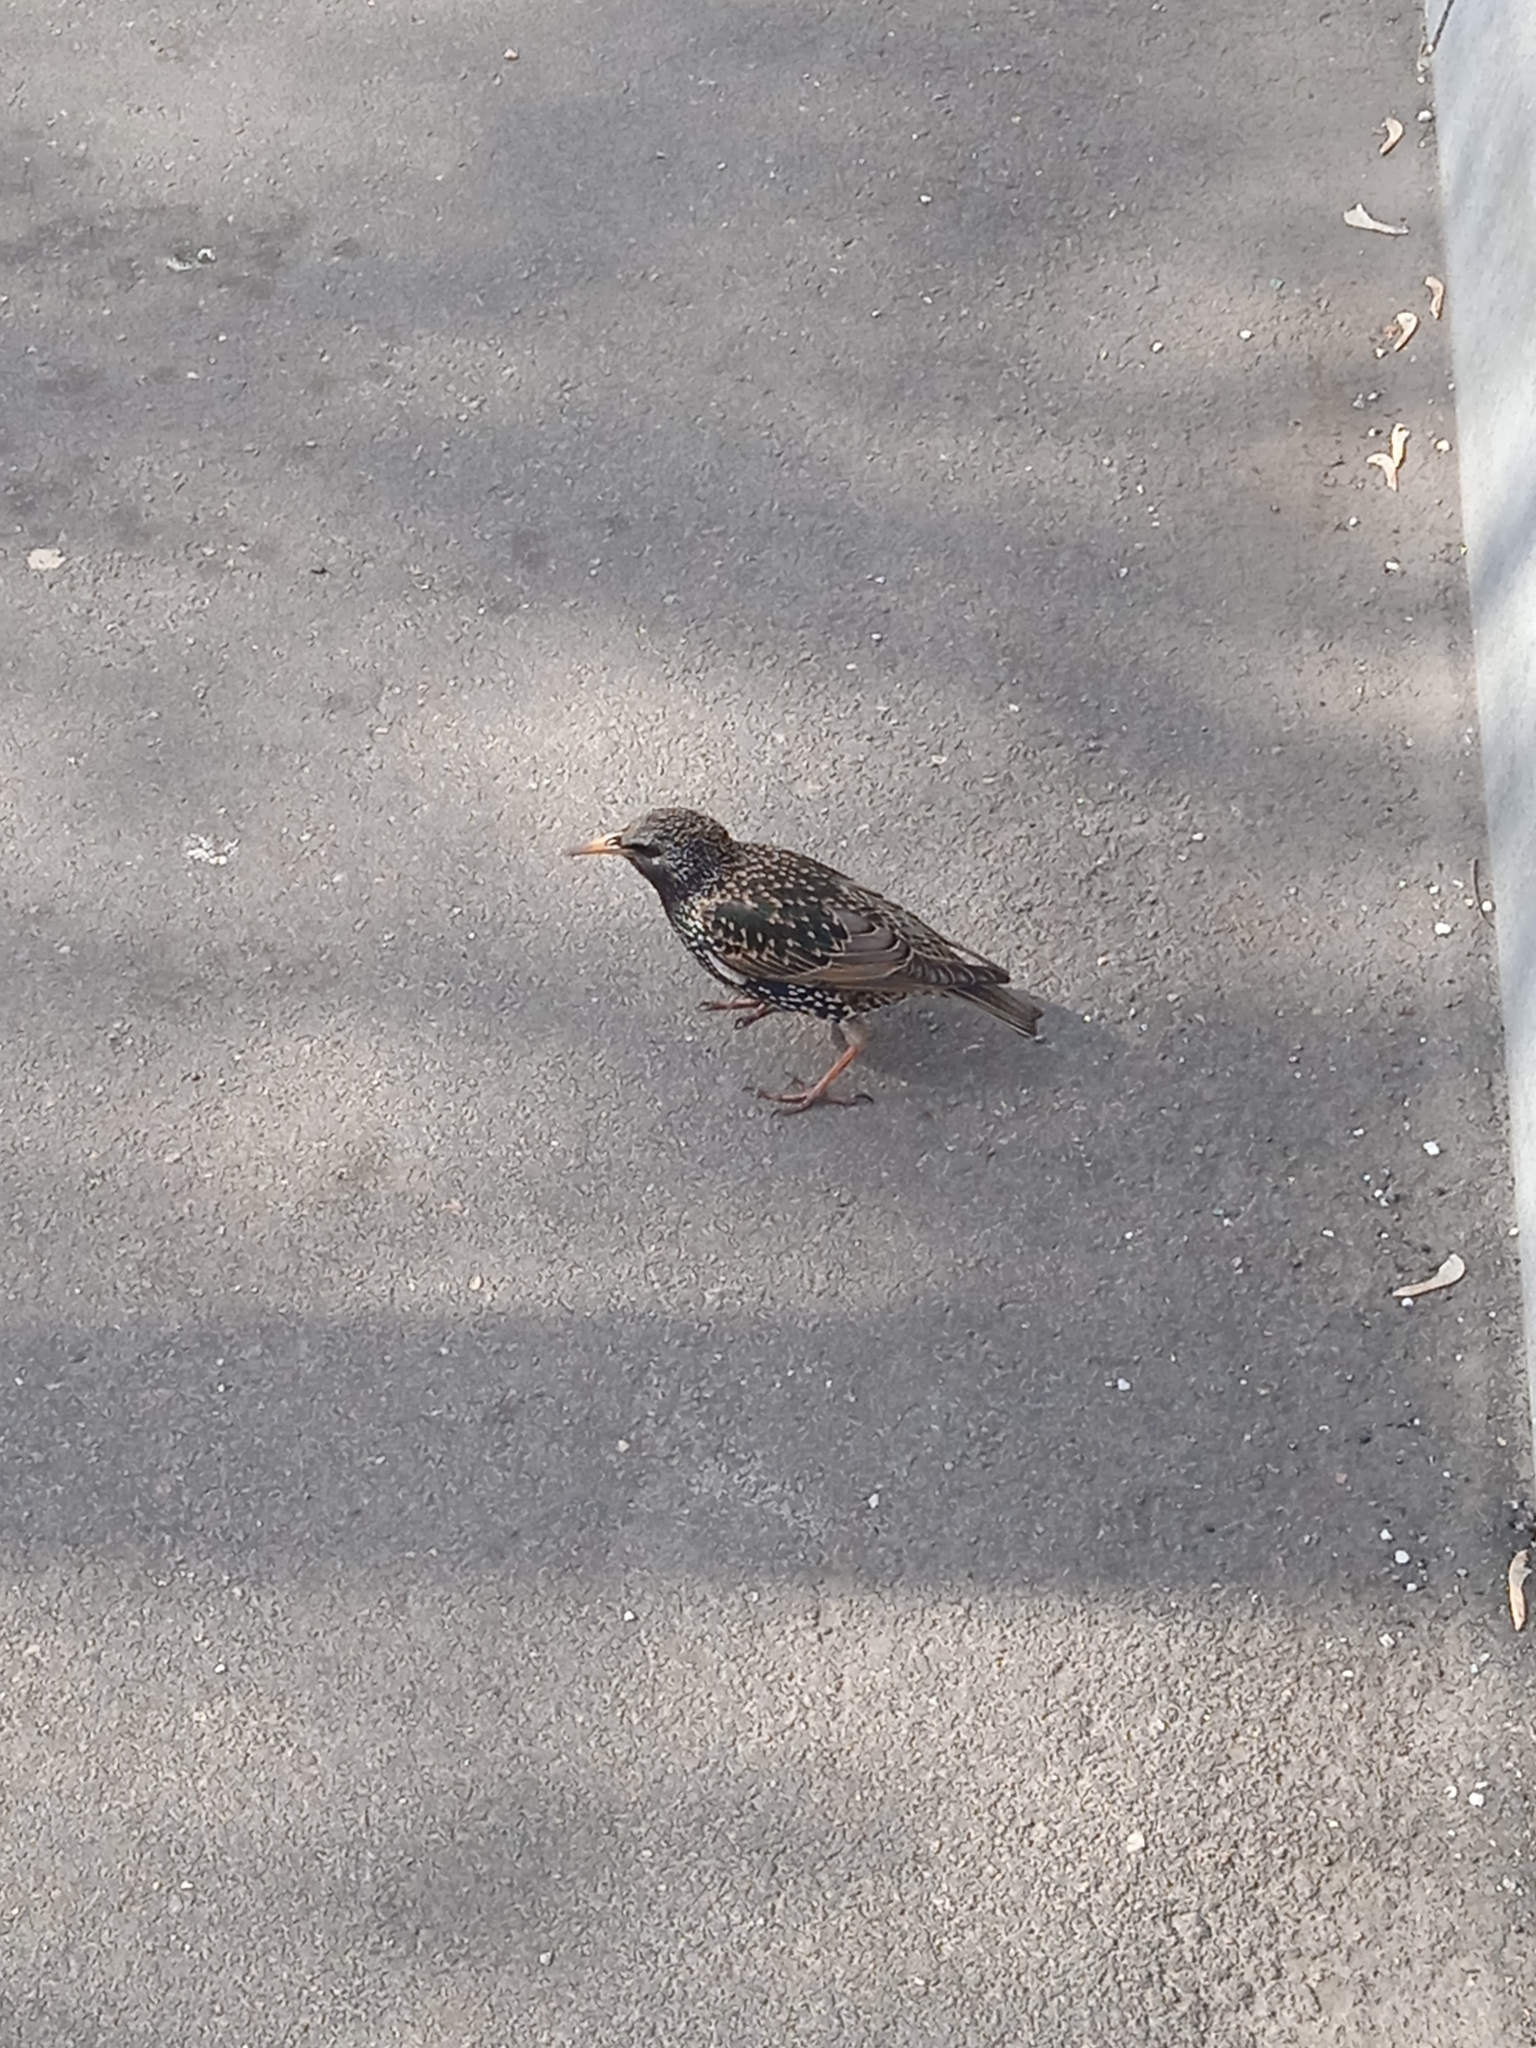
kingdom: Animalia
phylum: Chordata
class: Aves
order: Passeriformes
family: Sturnidae
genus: Sturnus
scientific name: Sturnus vulgaris
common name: Common starling
